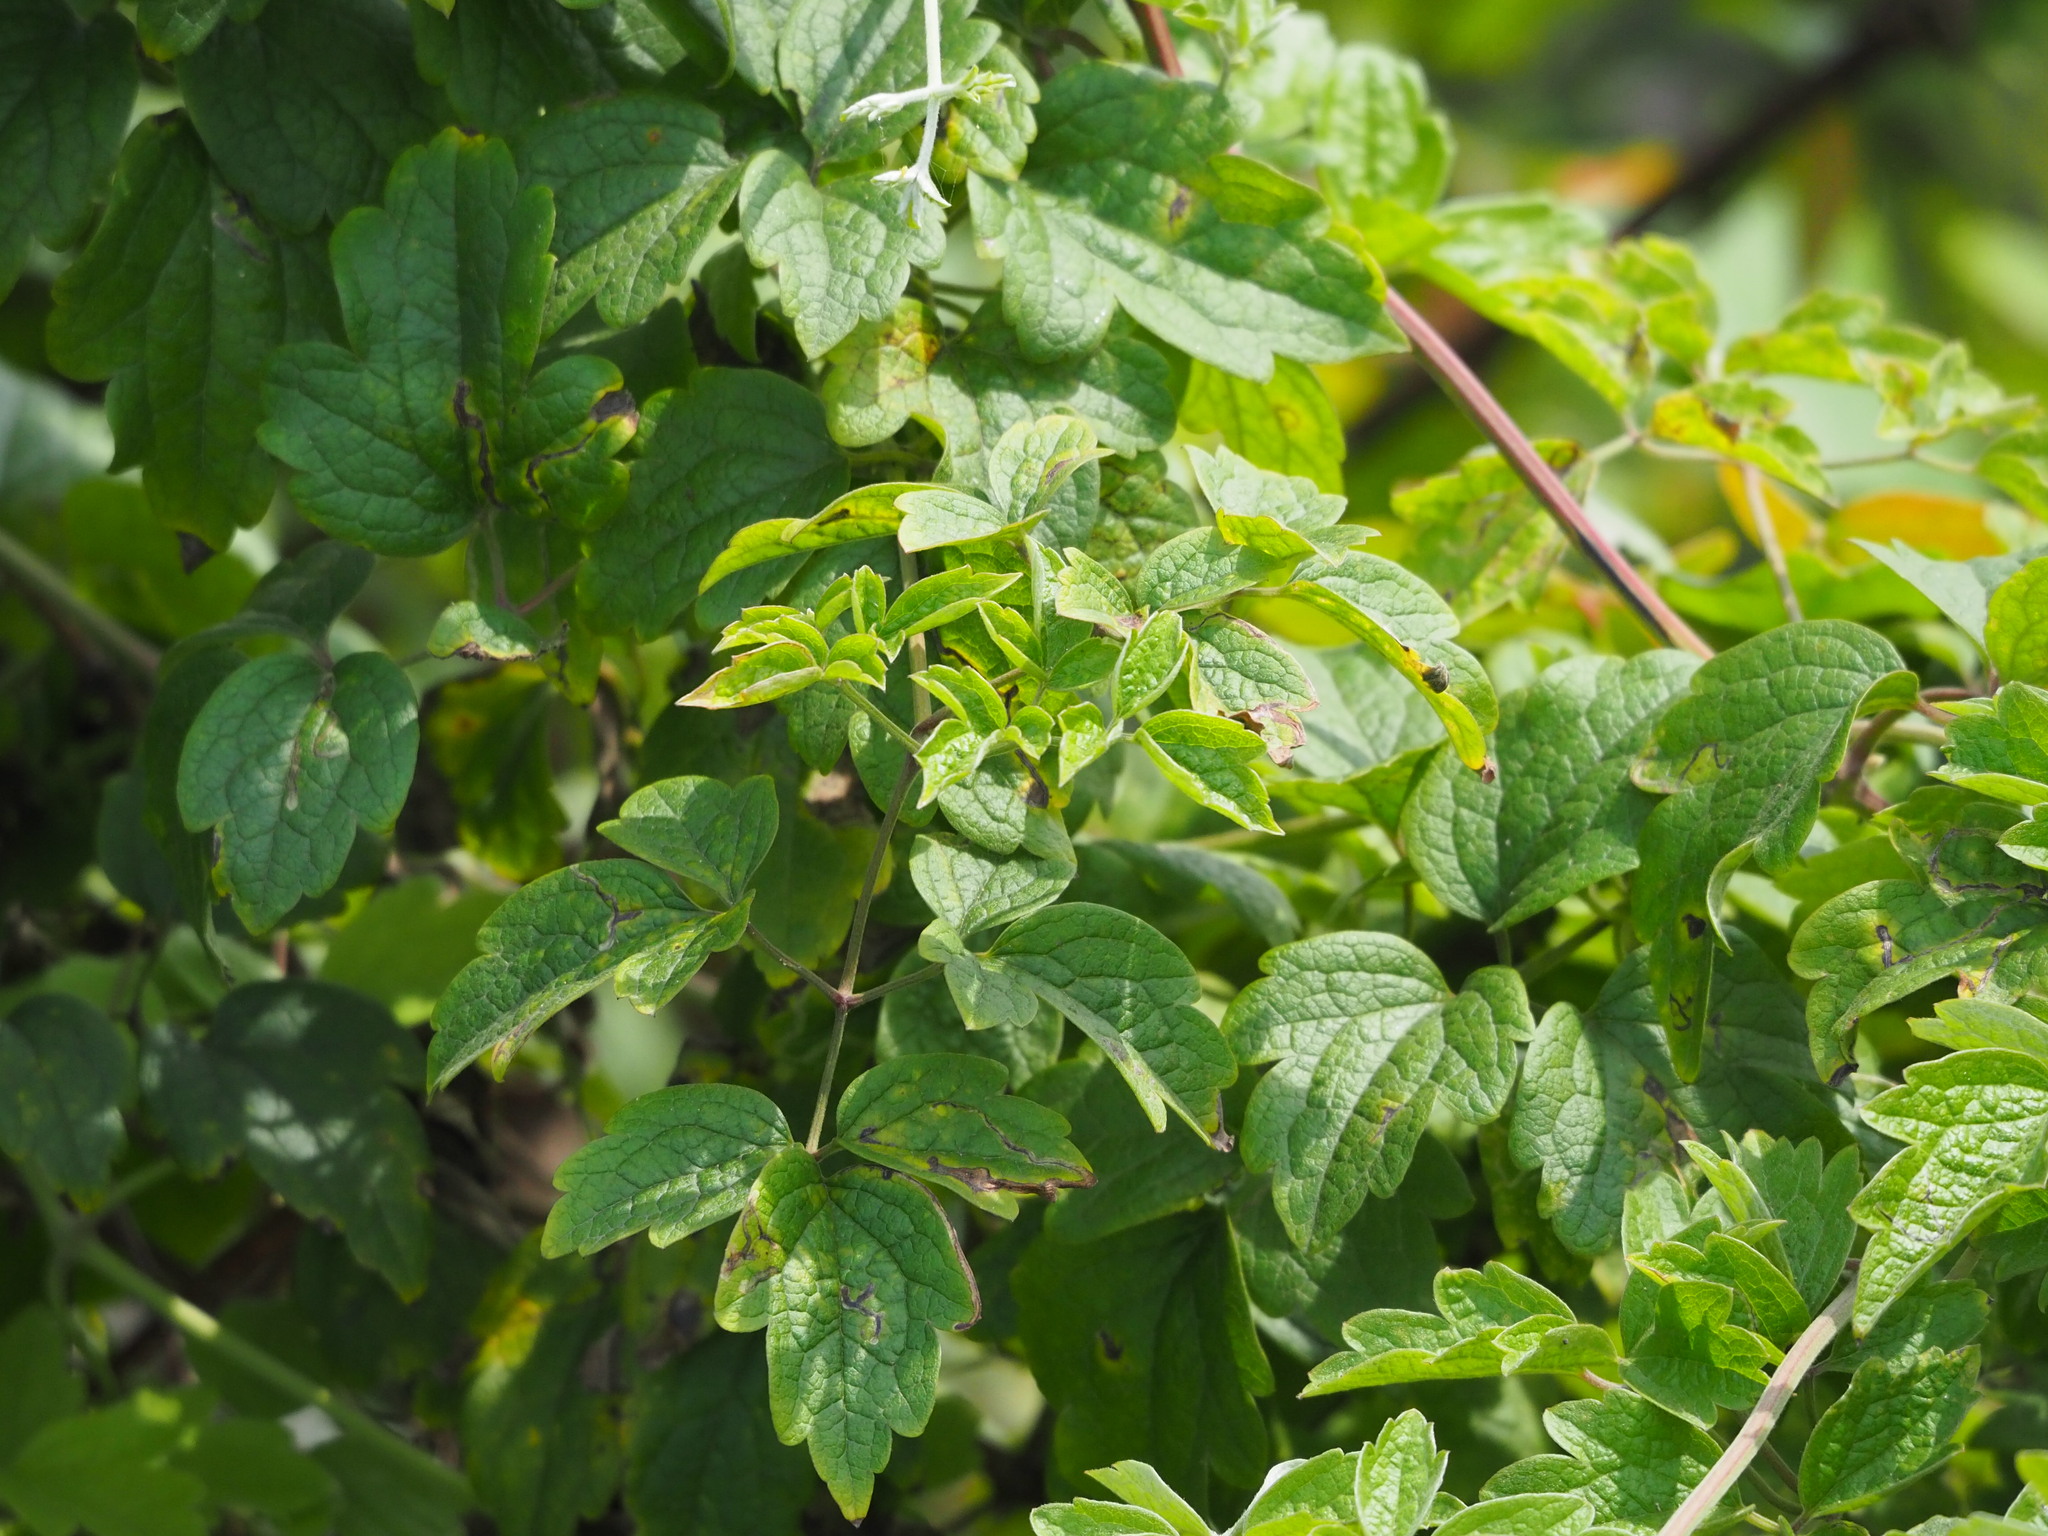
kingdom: Plantae
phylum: Tracheophyta
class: Magnoliopsida
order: Ranunculales
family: Ranunculaceae
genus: Clematis
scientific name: Clematis grata
